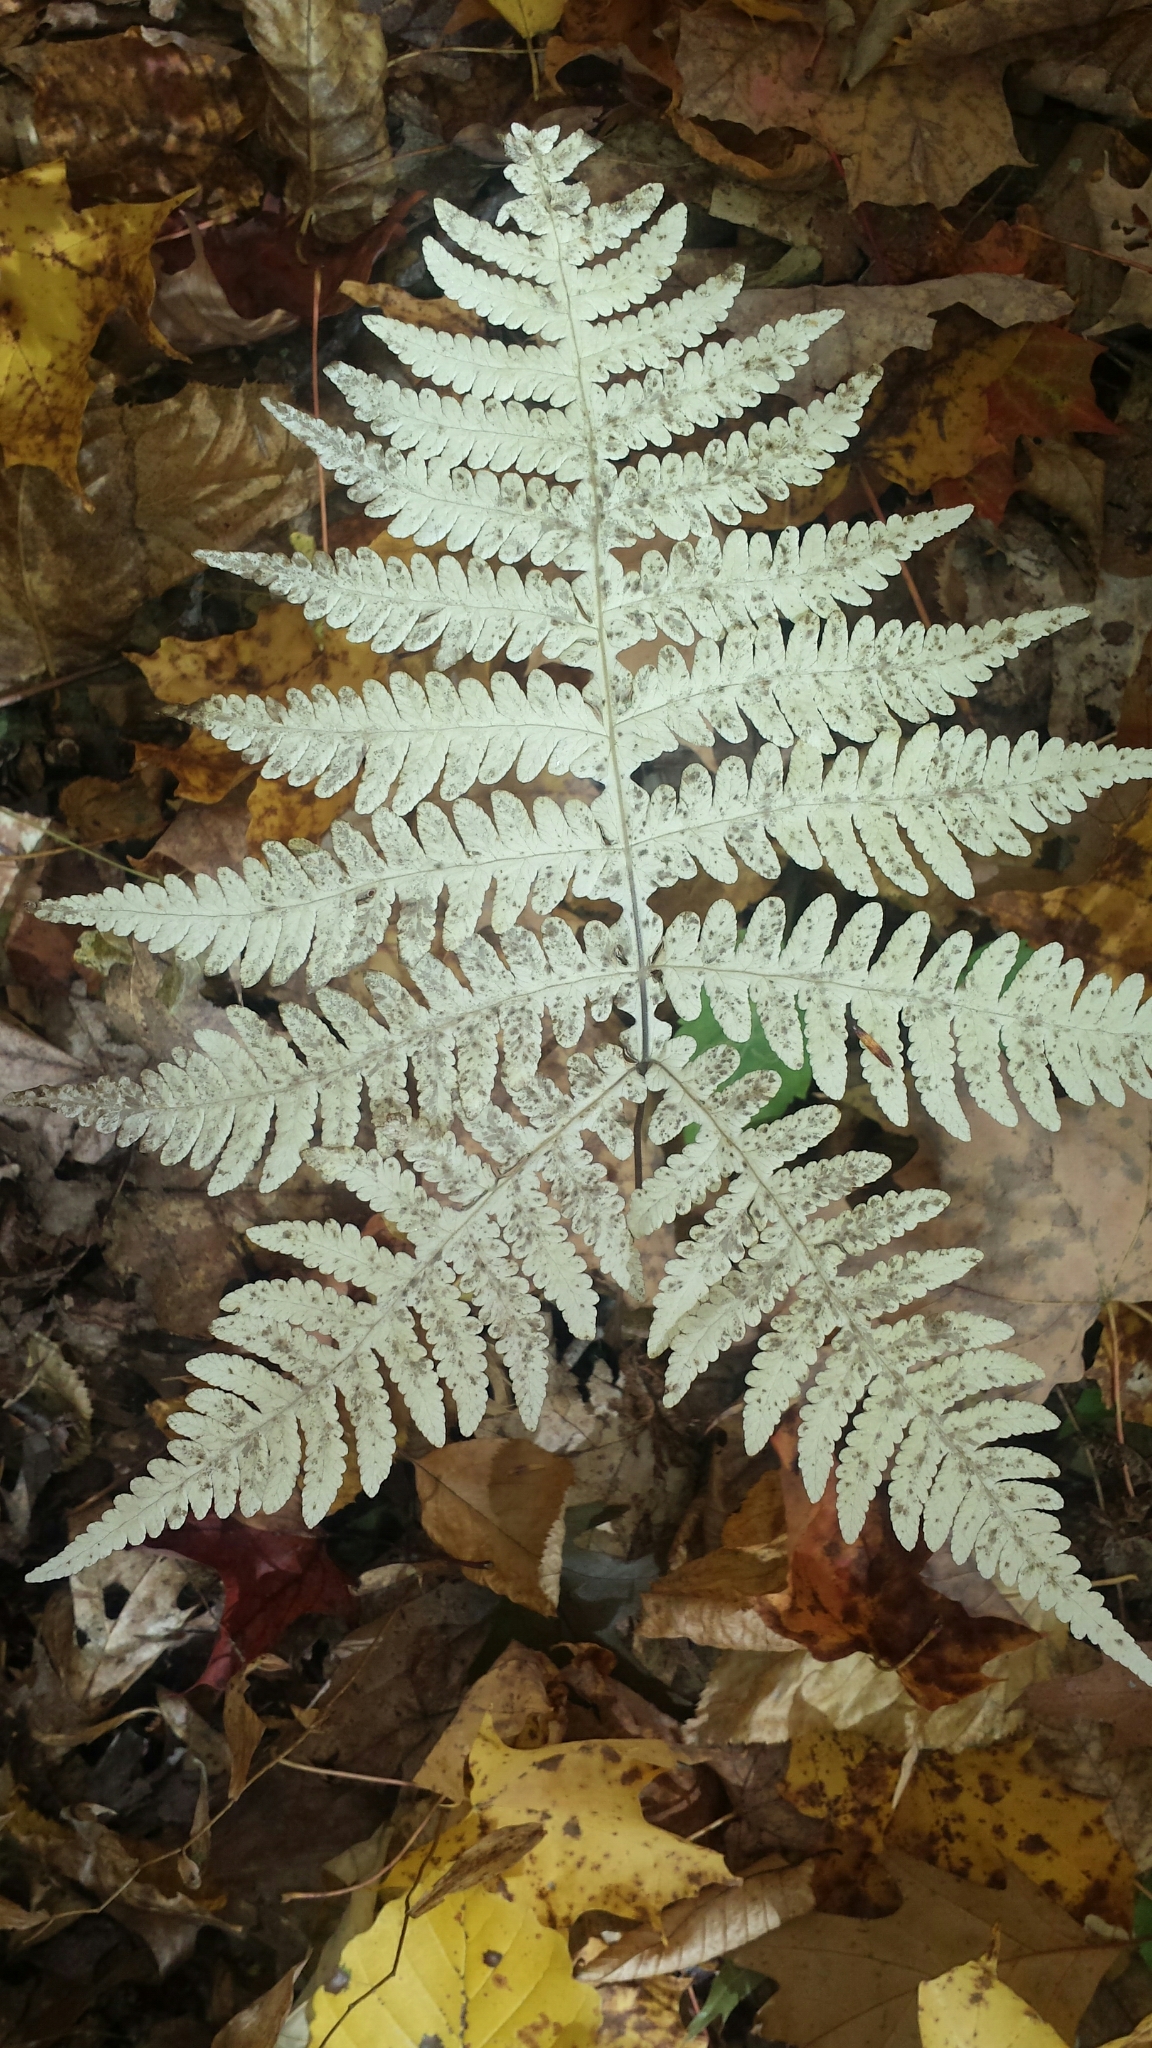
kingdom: Plantae
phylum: Tracheophyta
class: Polypodiopsida
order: Polypodiales
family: Thelypteridaceae
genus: Phegopteris
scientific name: Phegopteris hexagonoptera
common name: Broad beech fern
